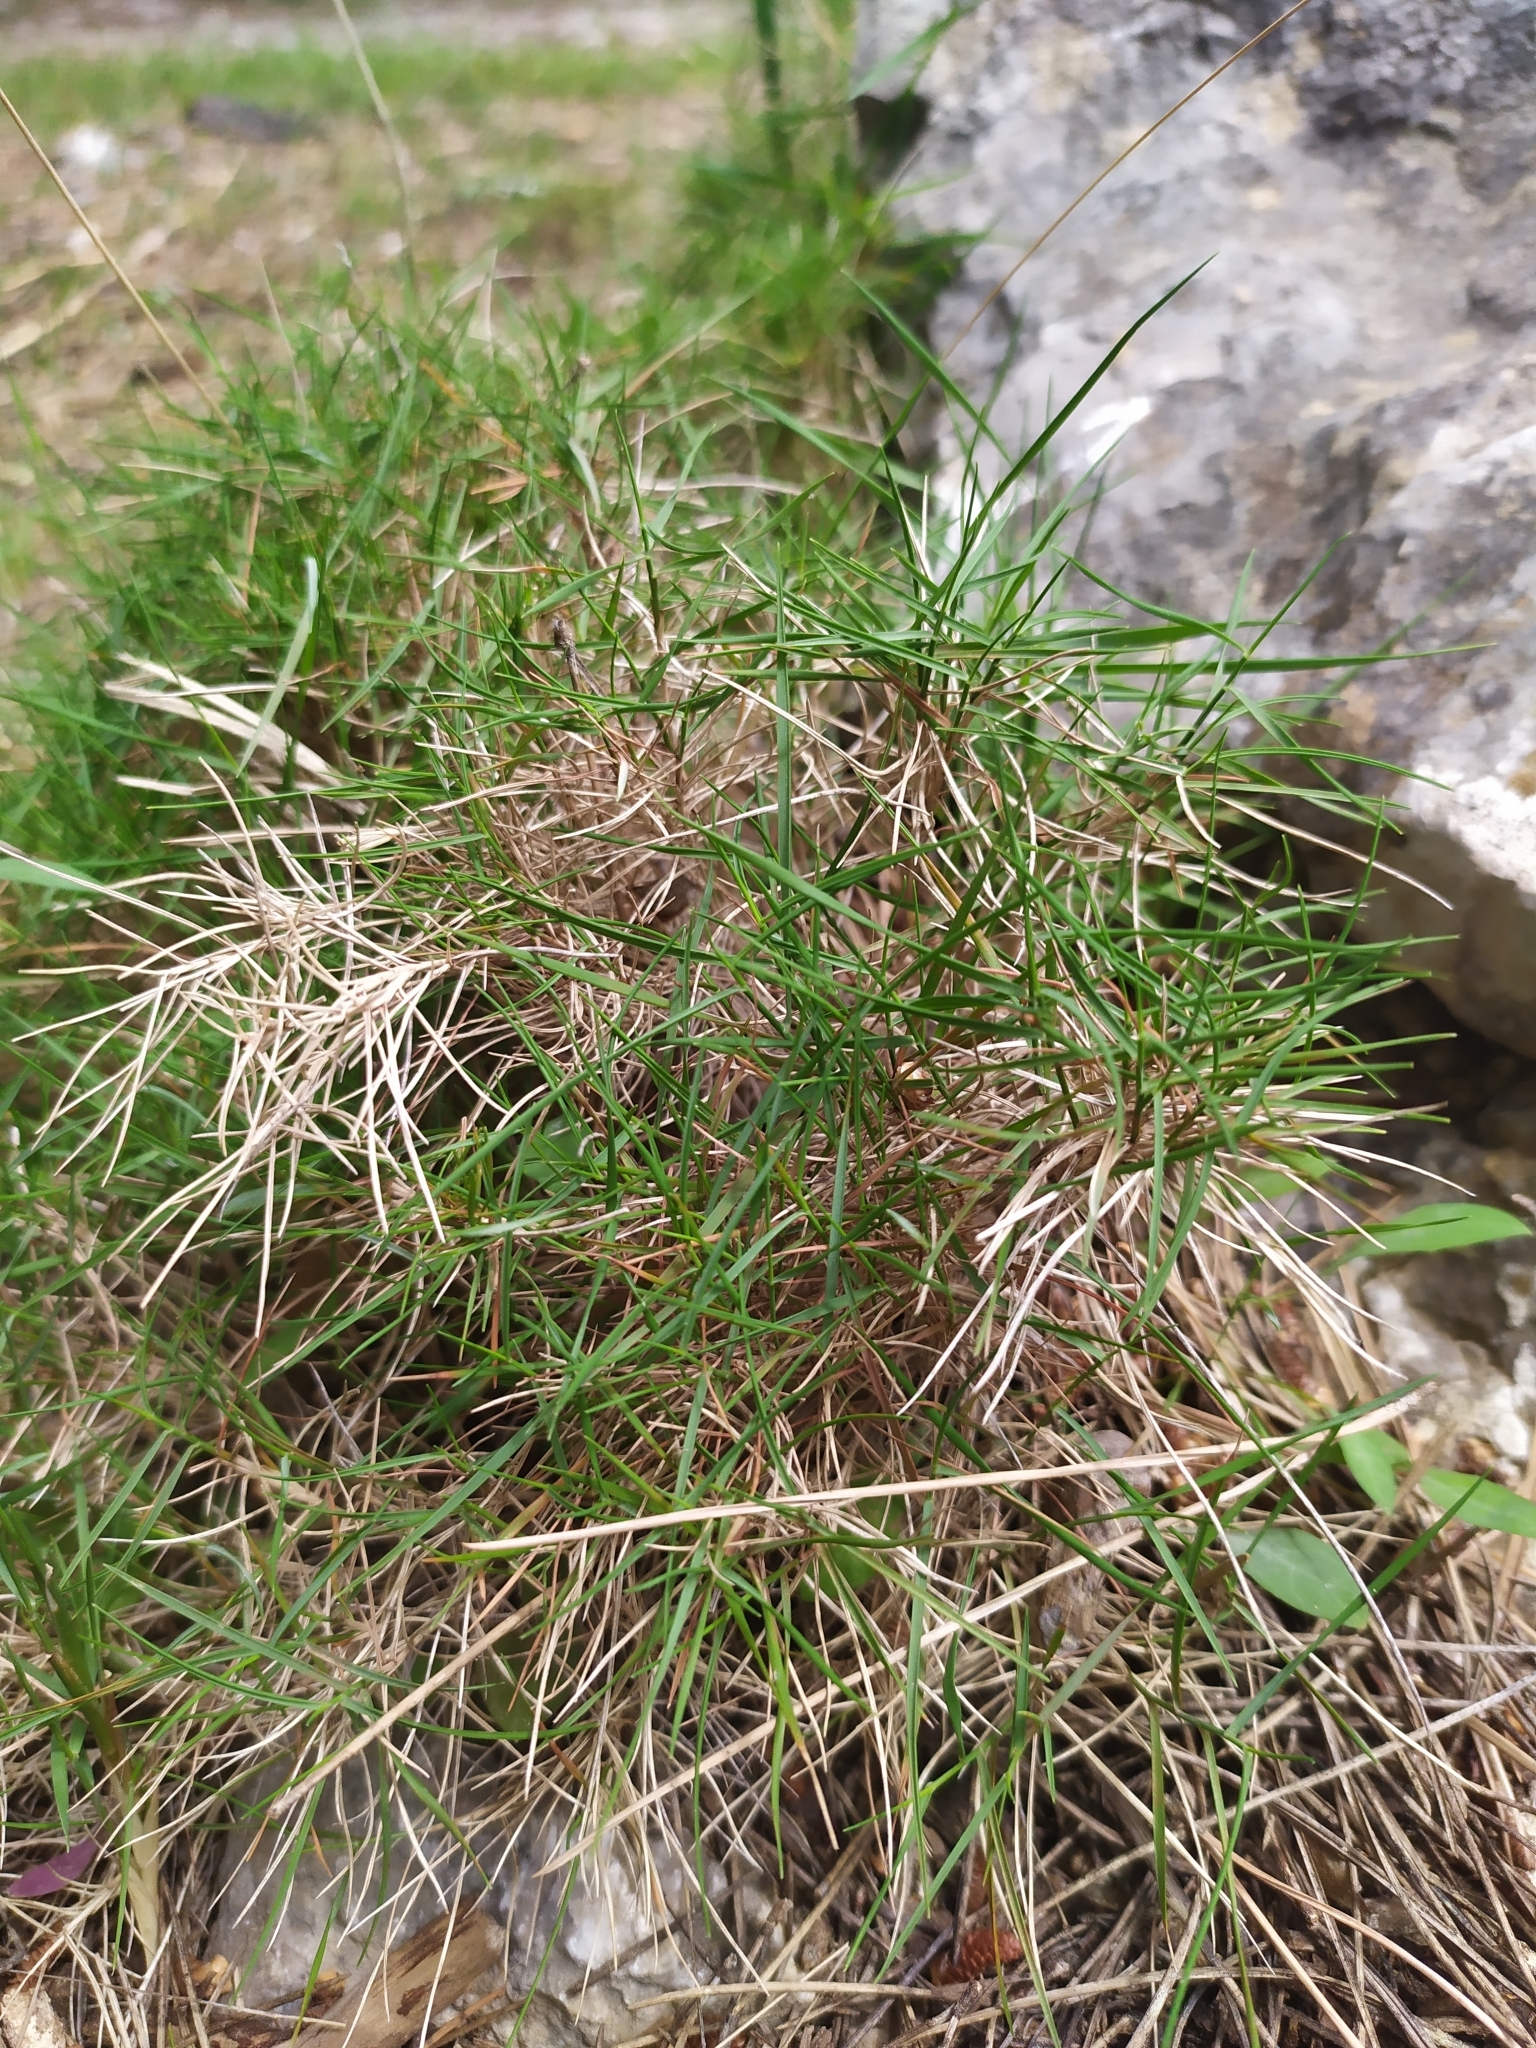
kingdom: Plantae
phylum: Tracheophyta
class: Liliopsida
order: Poales
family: Poaceae
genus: Brachypodium
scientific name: Brachypodium retusum
